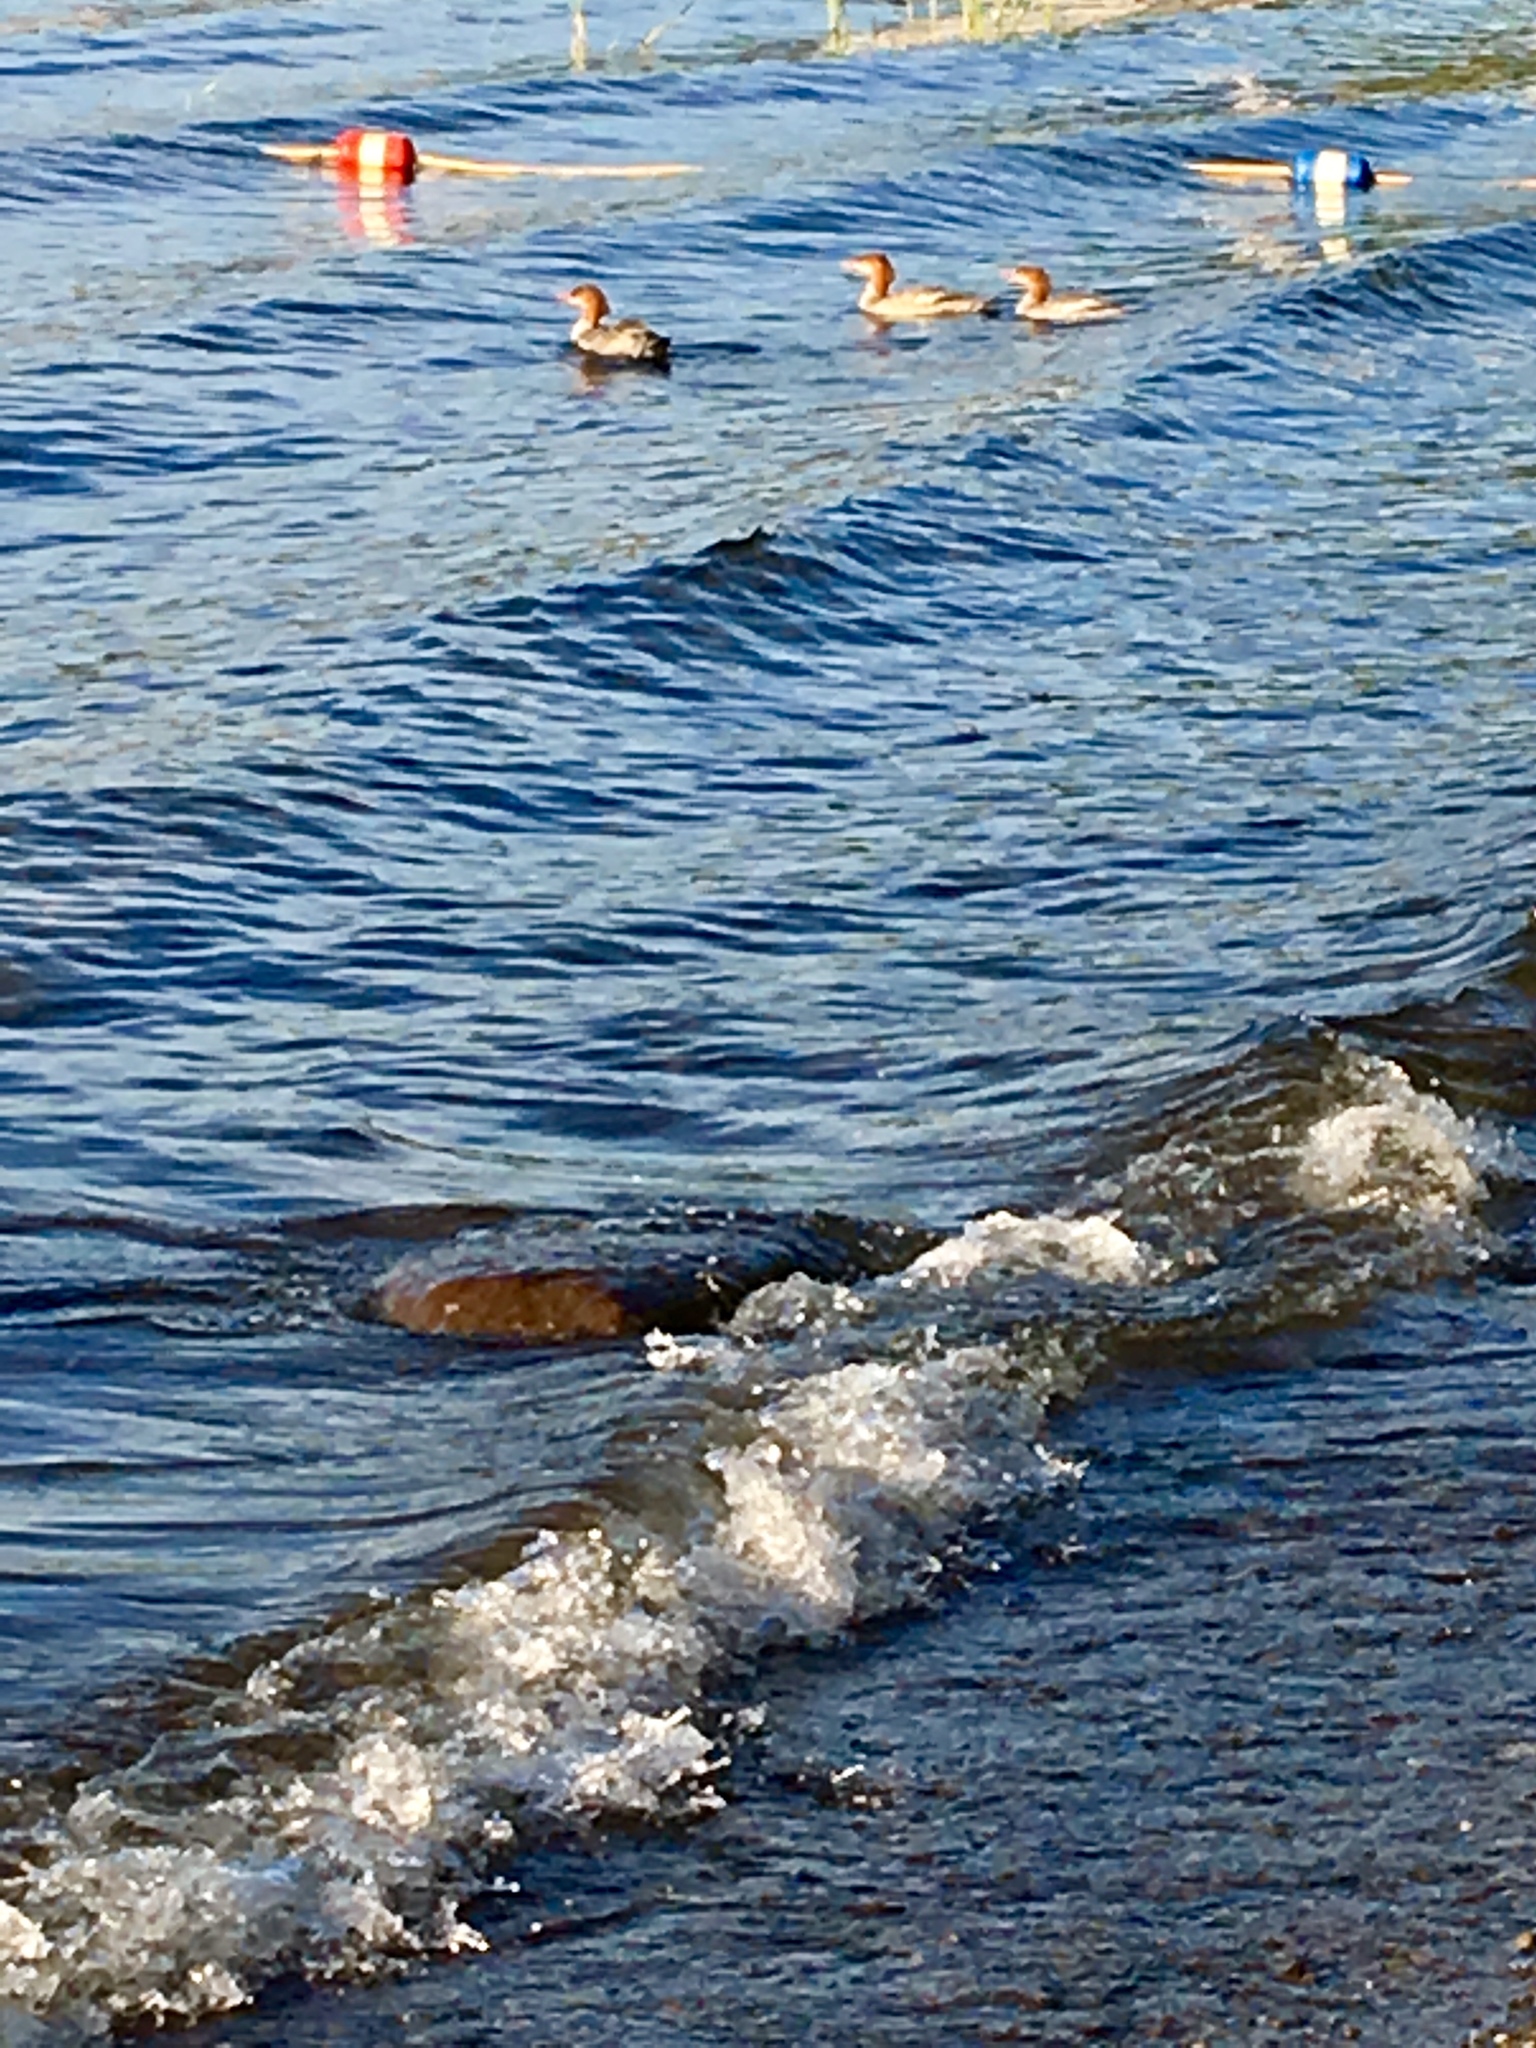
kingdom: Animalia
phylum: Chordata
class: Aves
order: Anseriformes
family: Anatidae
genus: Mergus
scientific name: Mergus merganser
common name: Common merganser
